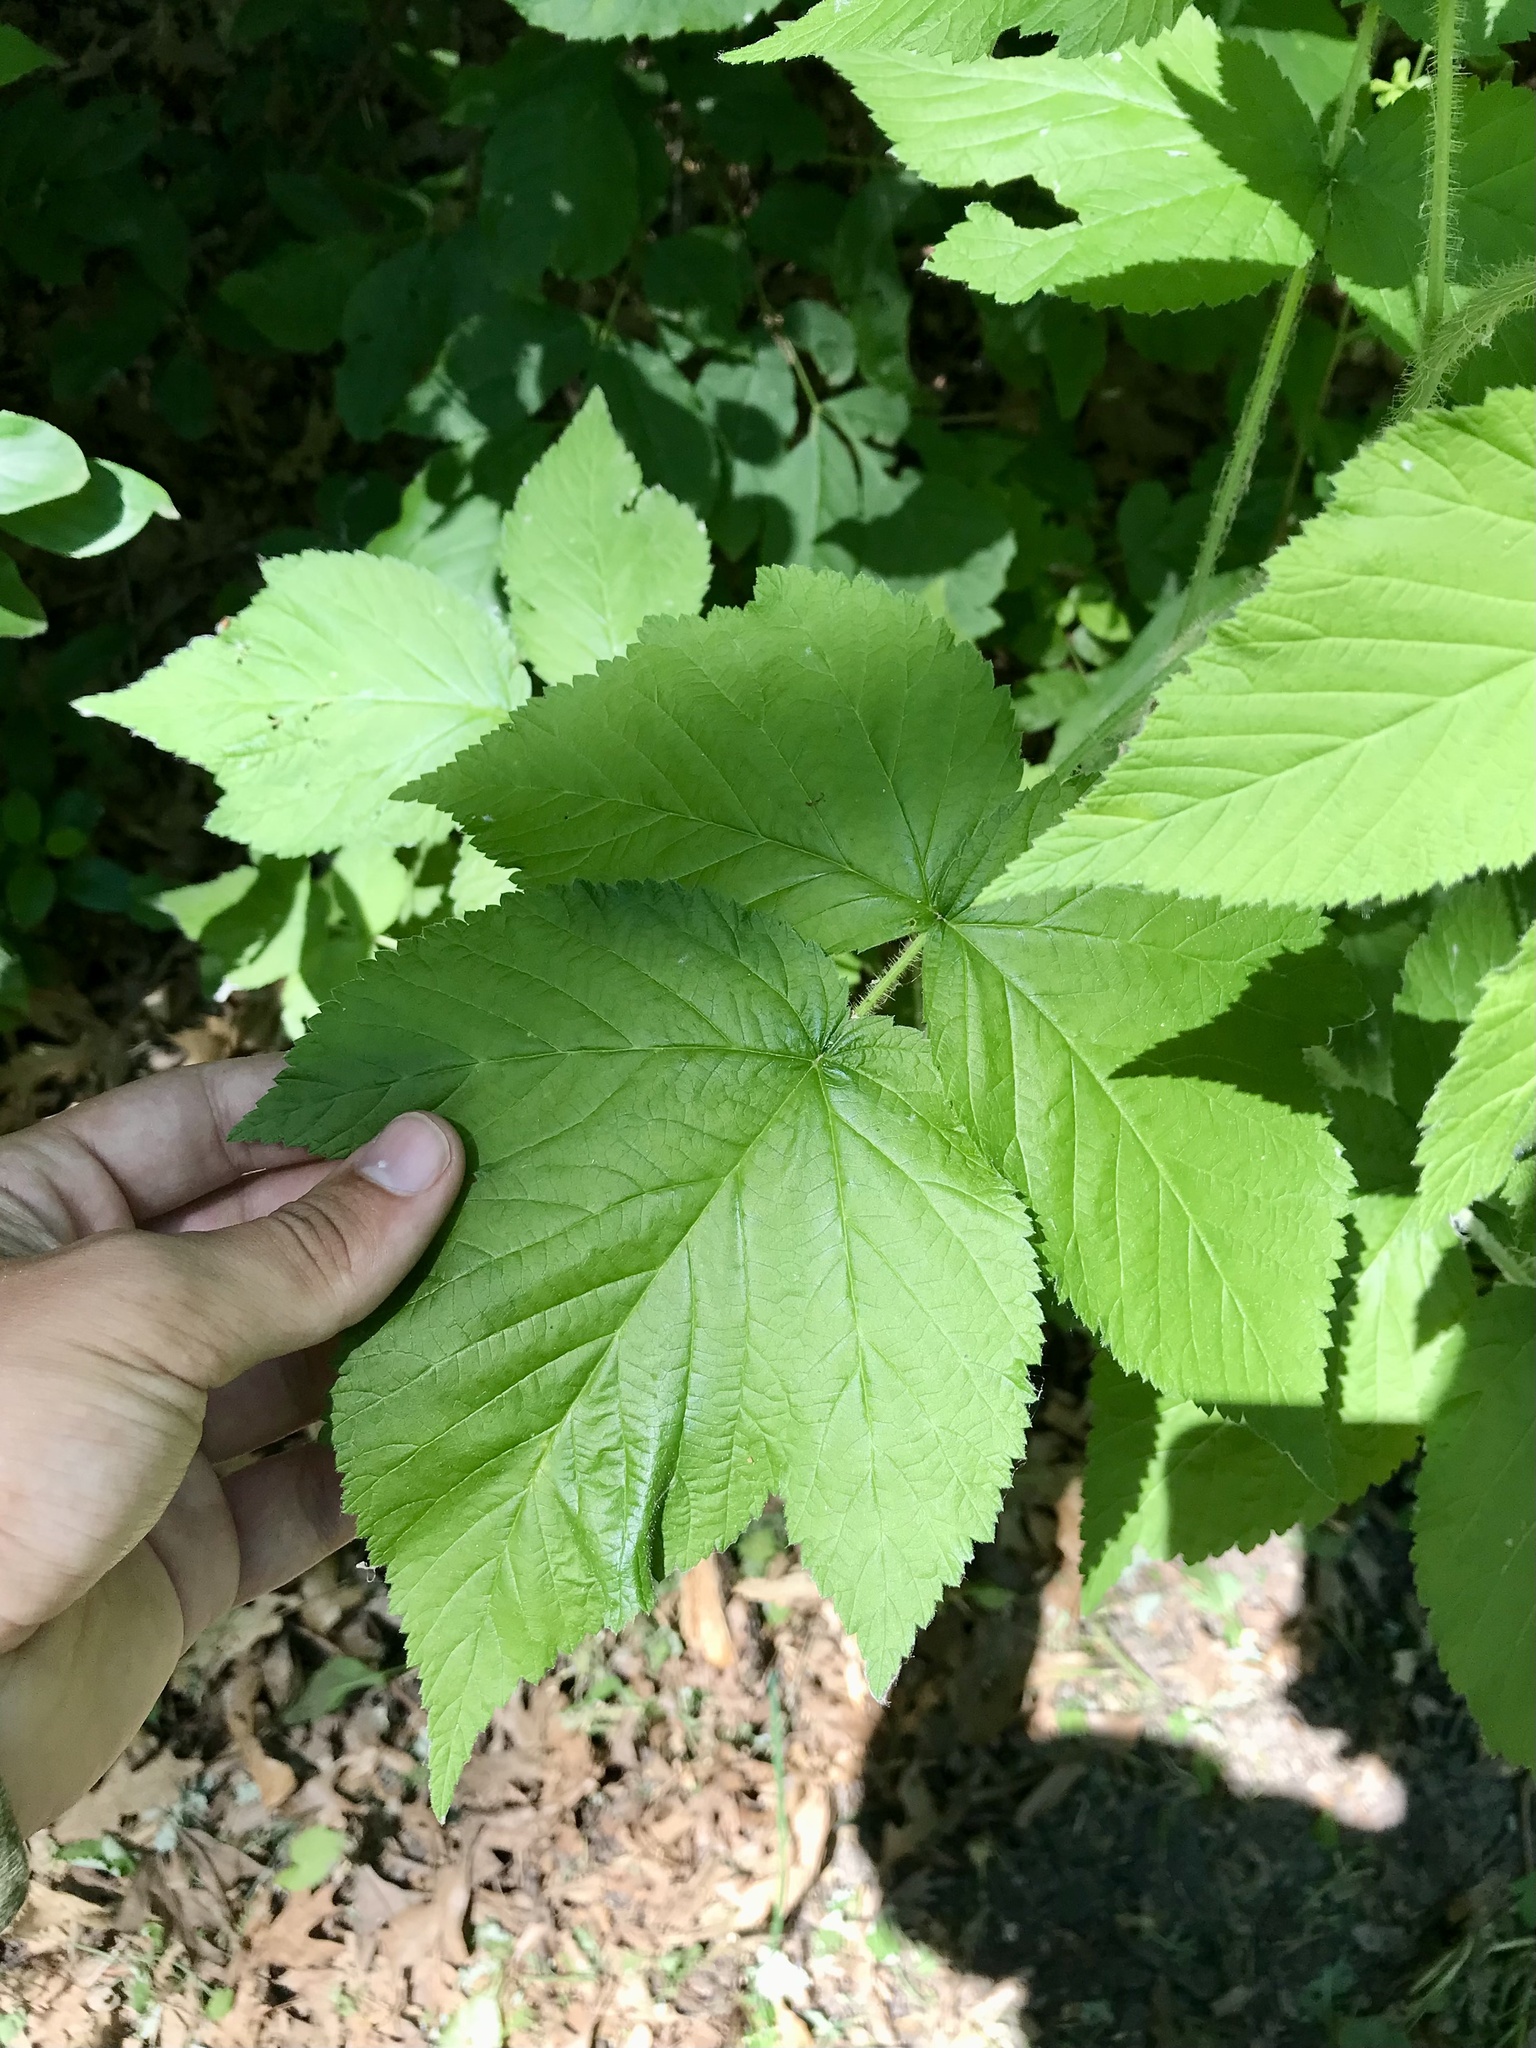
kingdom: Plantae
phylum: Tracheophyta
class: Magnoliopsida
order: Rosales
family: Rosaceae
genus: Rubus
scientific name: Rubus idaeus
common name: Raspberry
